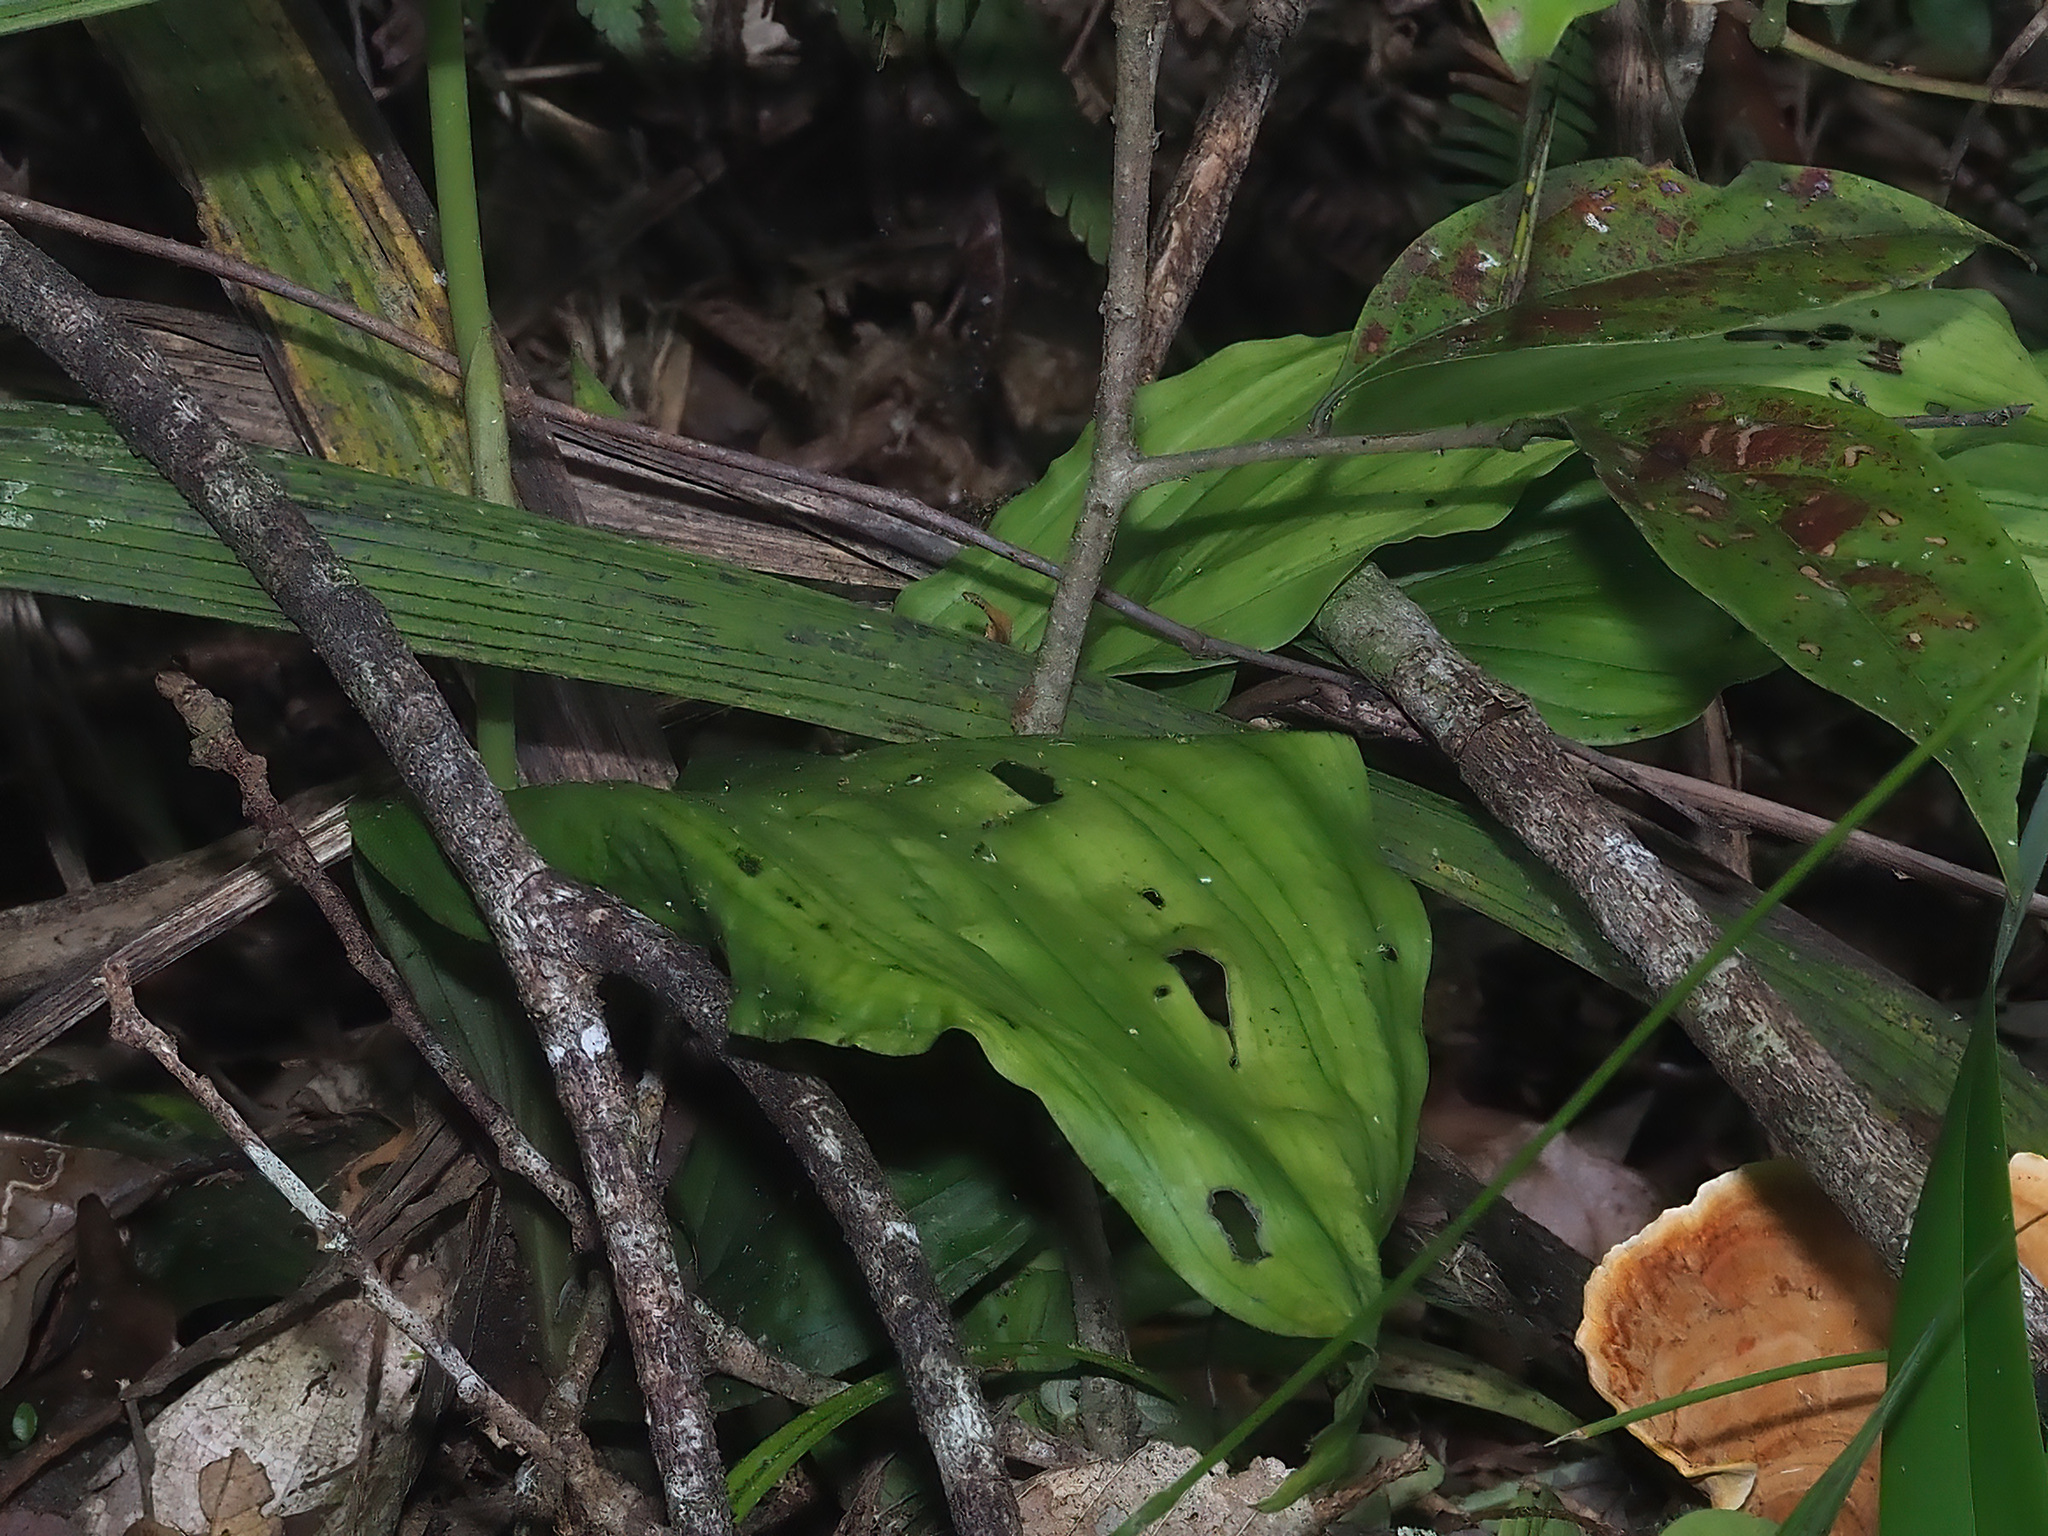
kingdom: Plantae
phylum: Tracheophyta
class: Liliopsida
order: Asparagales
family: Orchidaceae
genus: Calanthe
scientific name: Calanthe kinabaluensis
